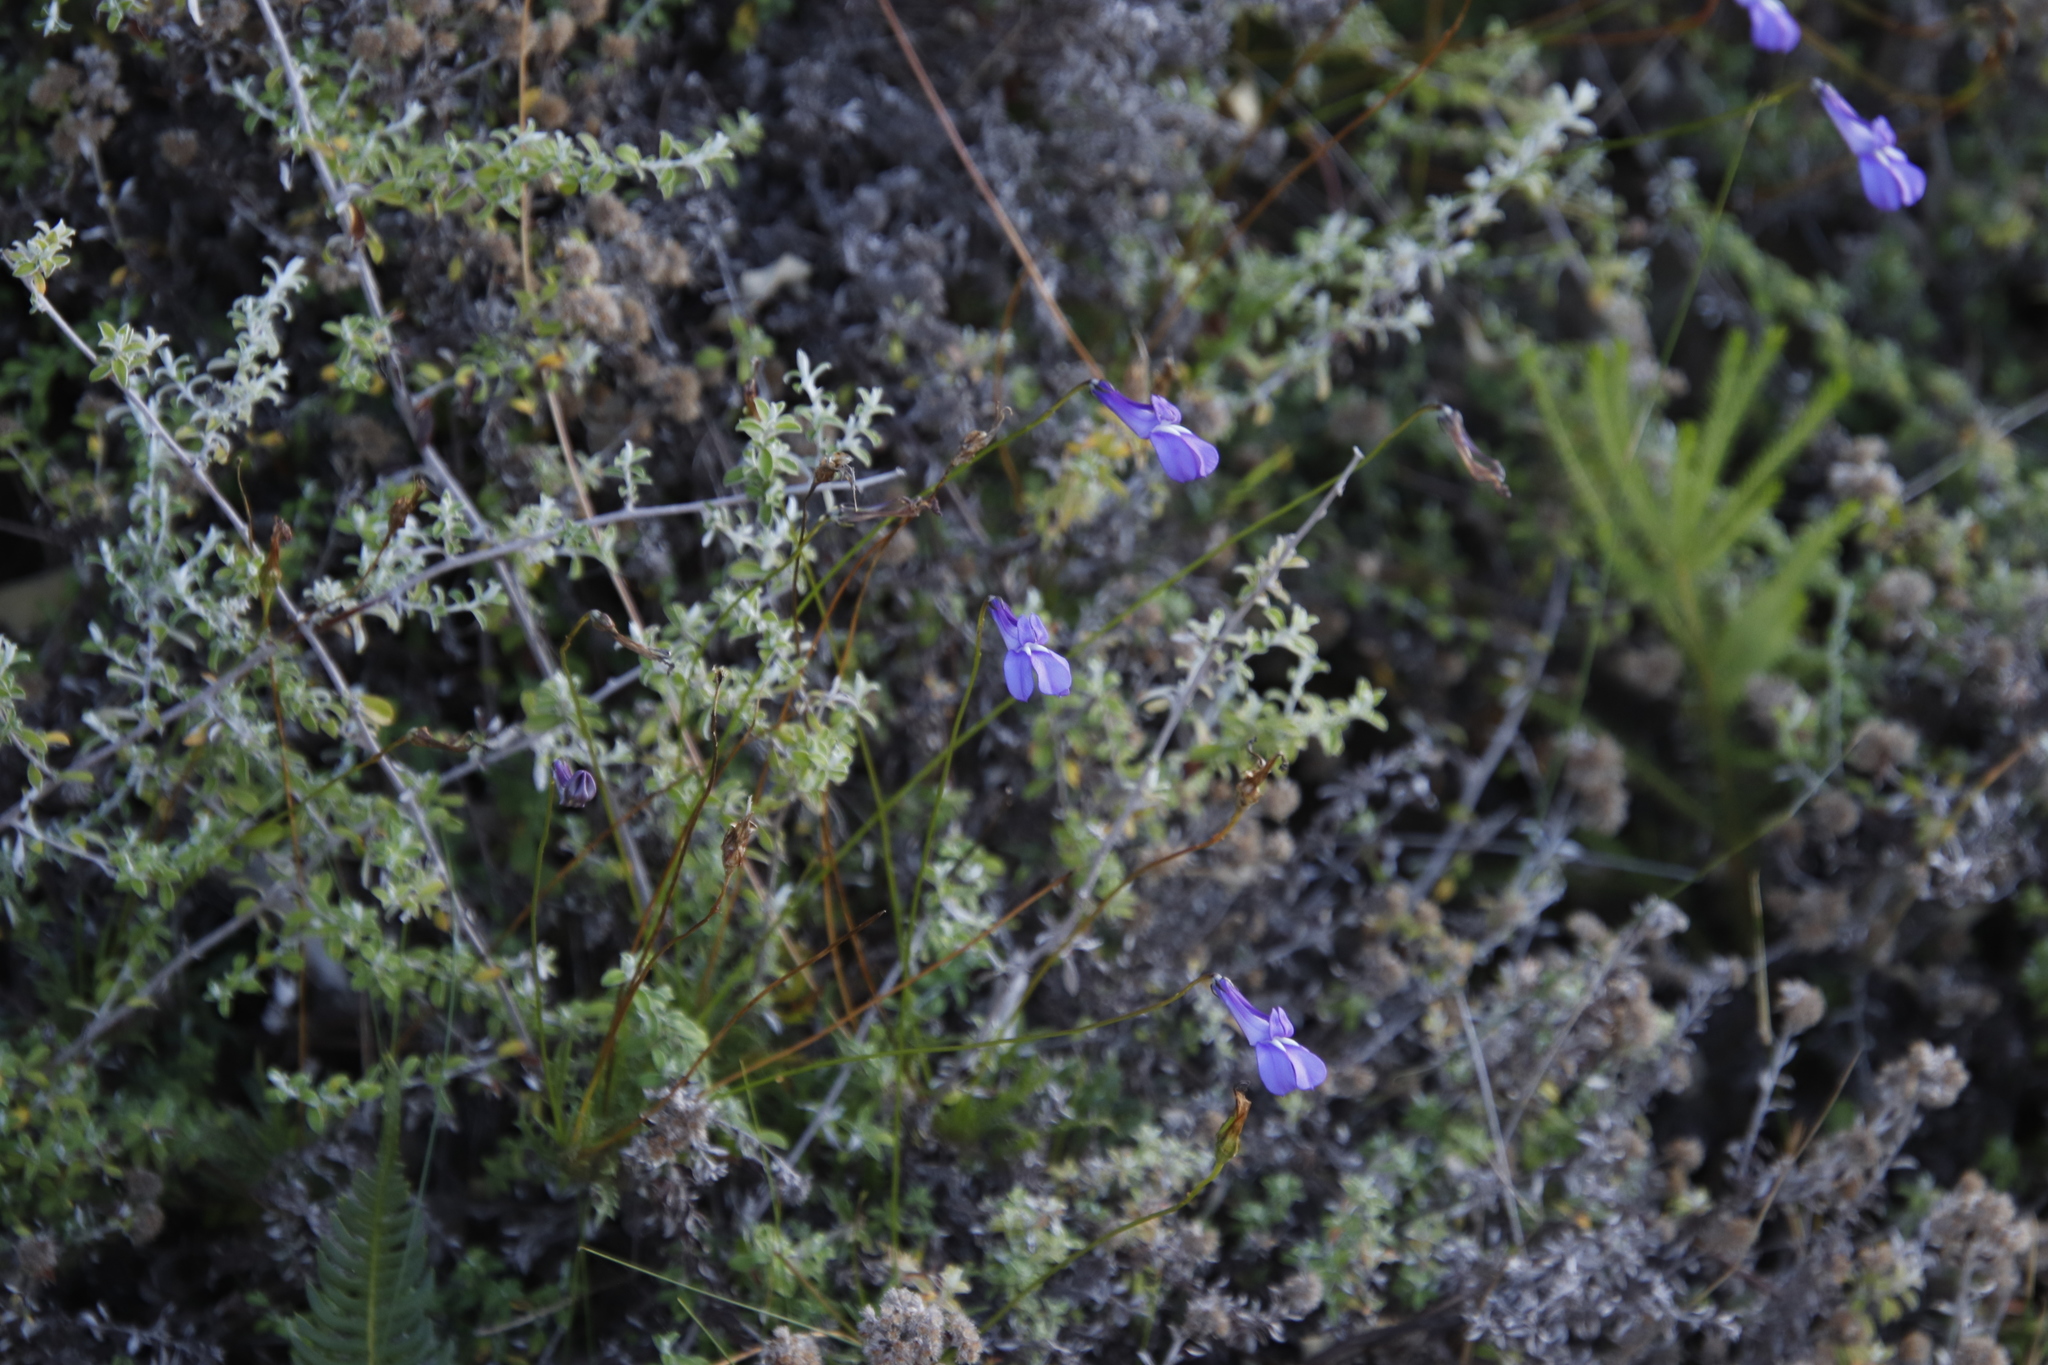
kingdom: Plantae
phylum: Tracheophyta
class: Magnoliopsida
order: Asterales
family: Campanulaceae
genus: Lobelia
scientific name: Lobelia coronopifolia
